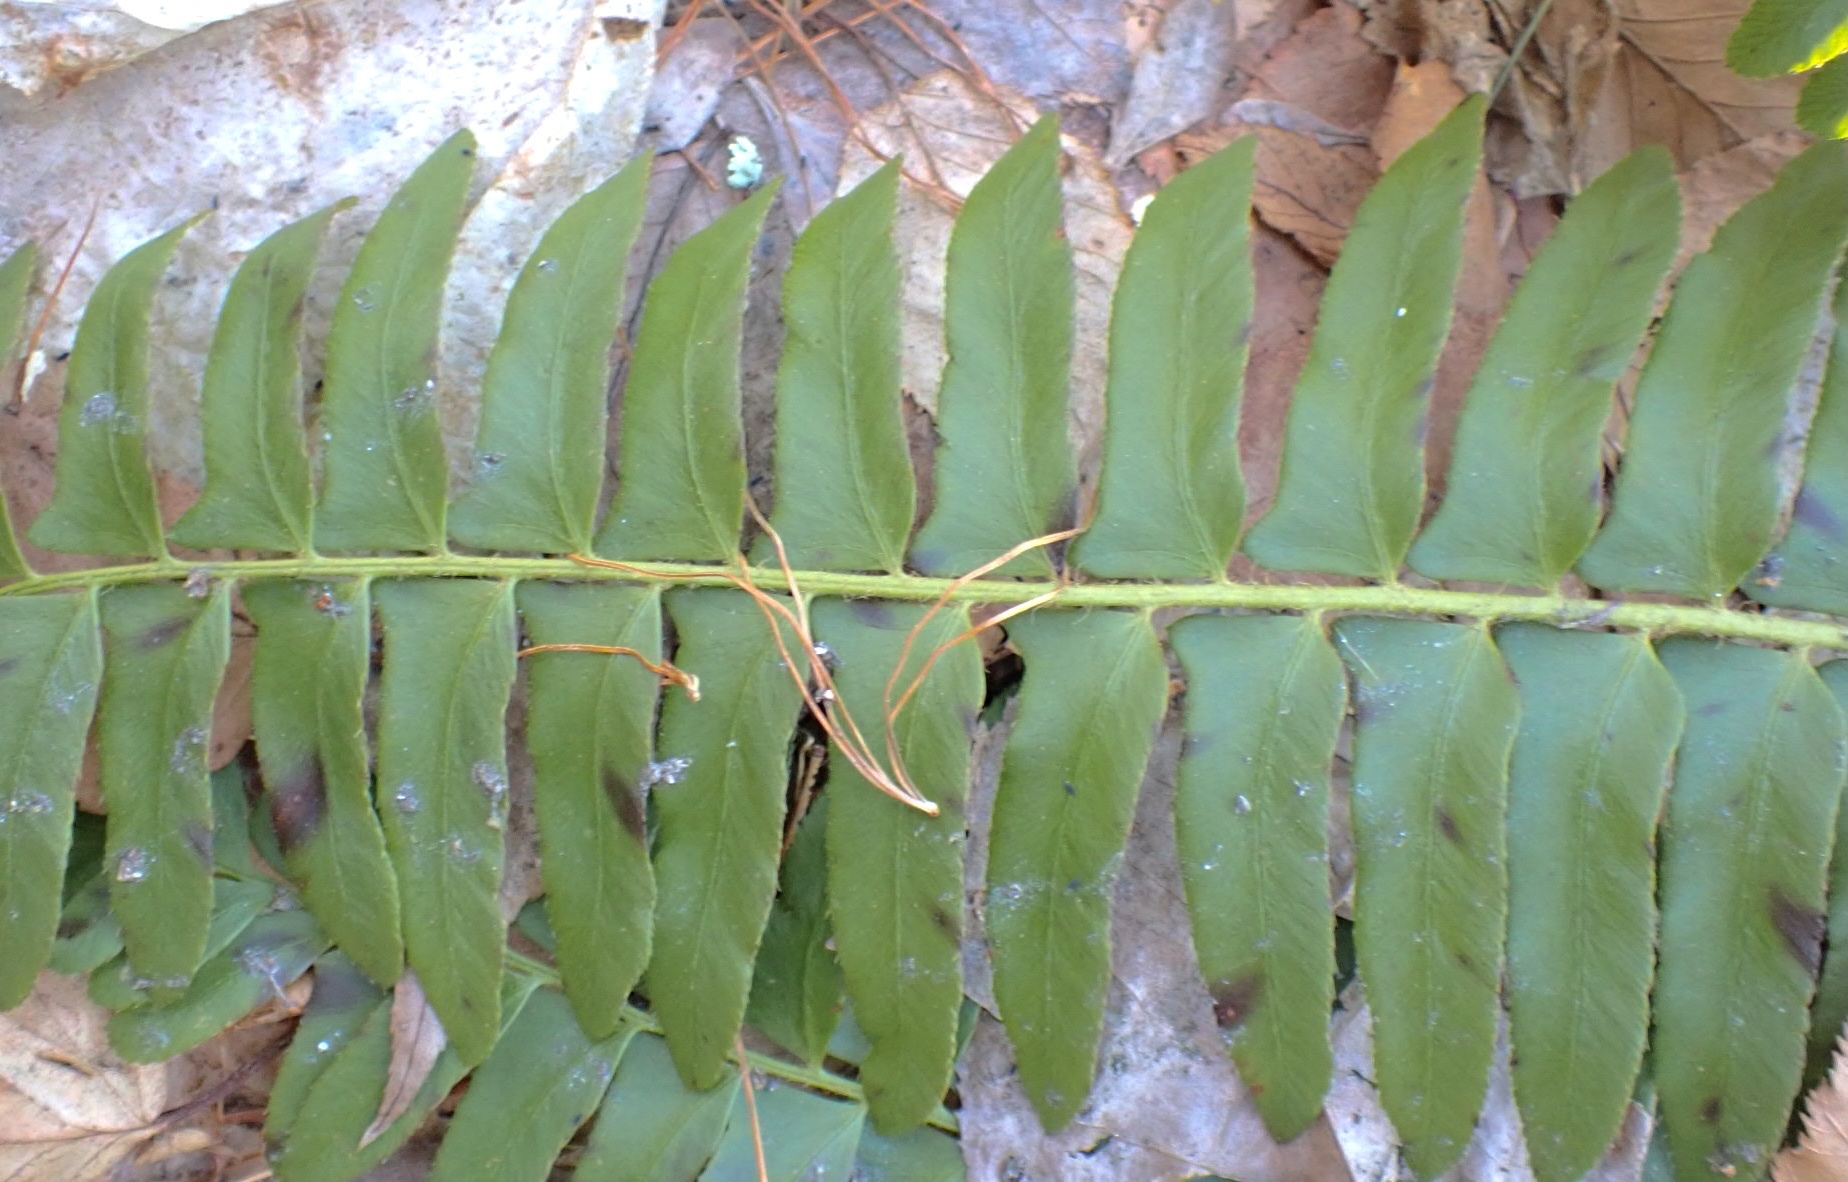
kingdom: Plantae
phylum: Tracheophyta
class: Polypodiopsida
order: Polypodiales
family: Dryopteridaceae
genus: Polystichum
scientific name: Polystichum acrostichoides
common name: Christmas fern
